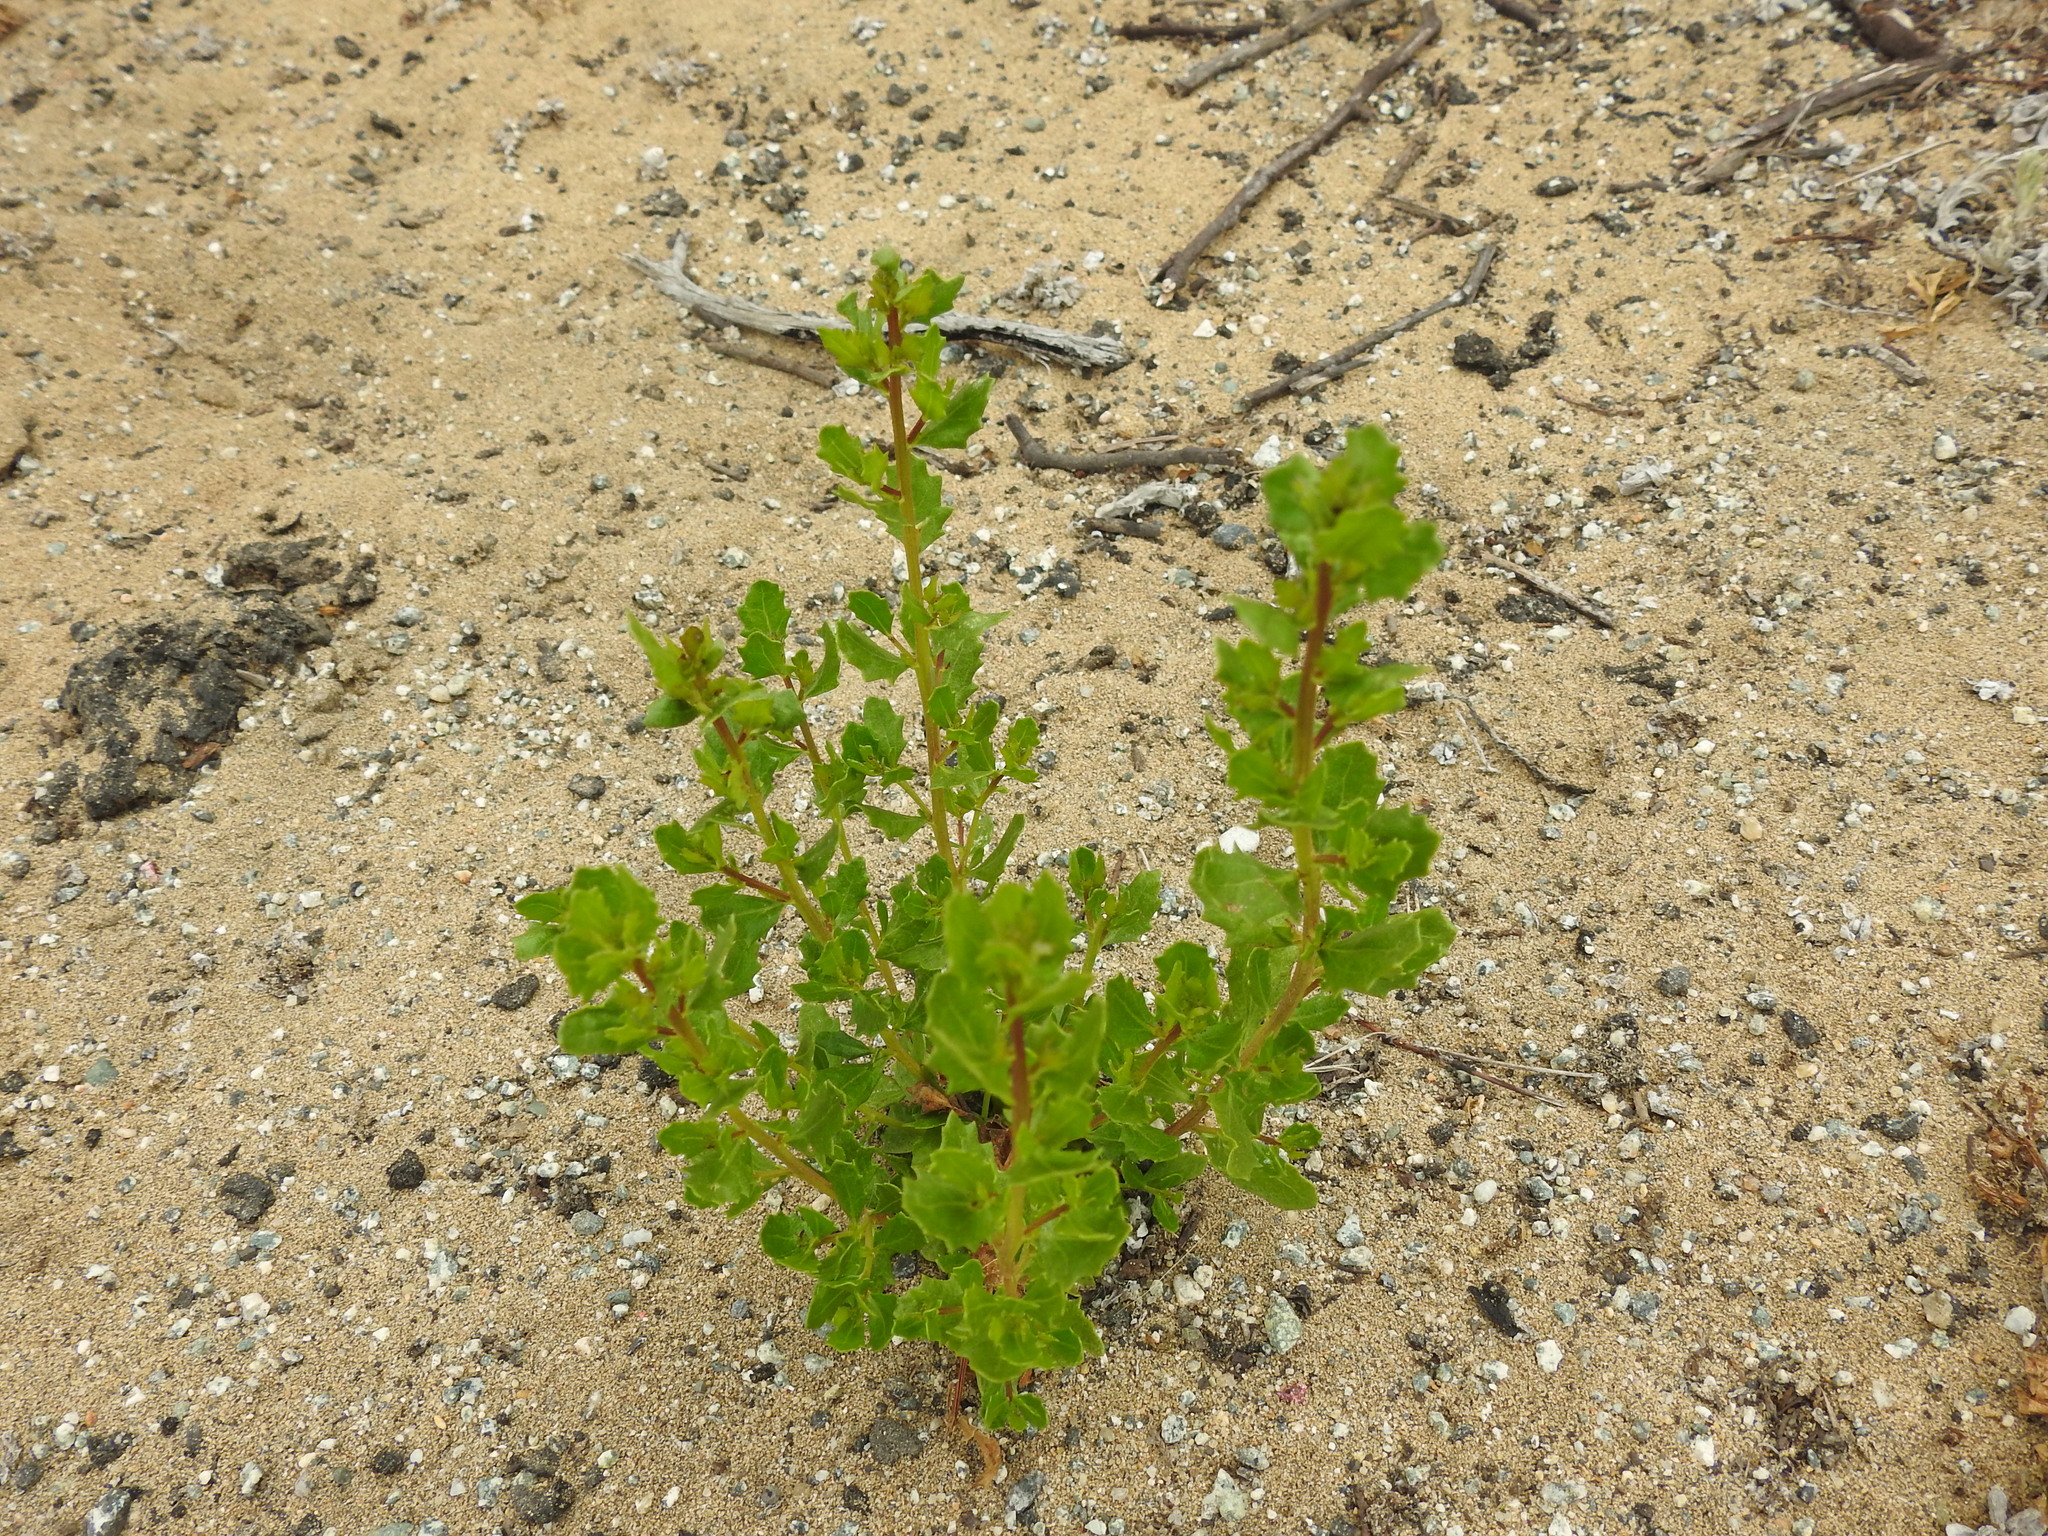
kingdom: Plantae
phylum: Tracheophyta
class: Magnoliopsida
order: Asterales
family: Asteraceae
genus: Baccharis
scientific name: Baccharis pilularis
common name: Coyotebrush
